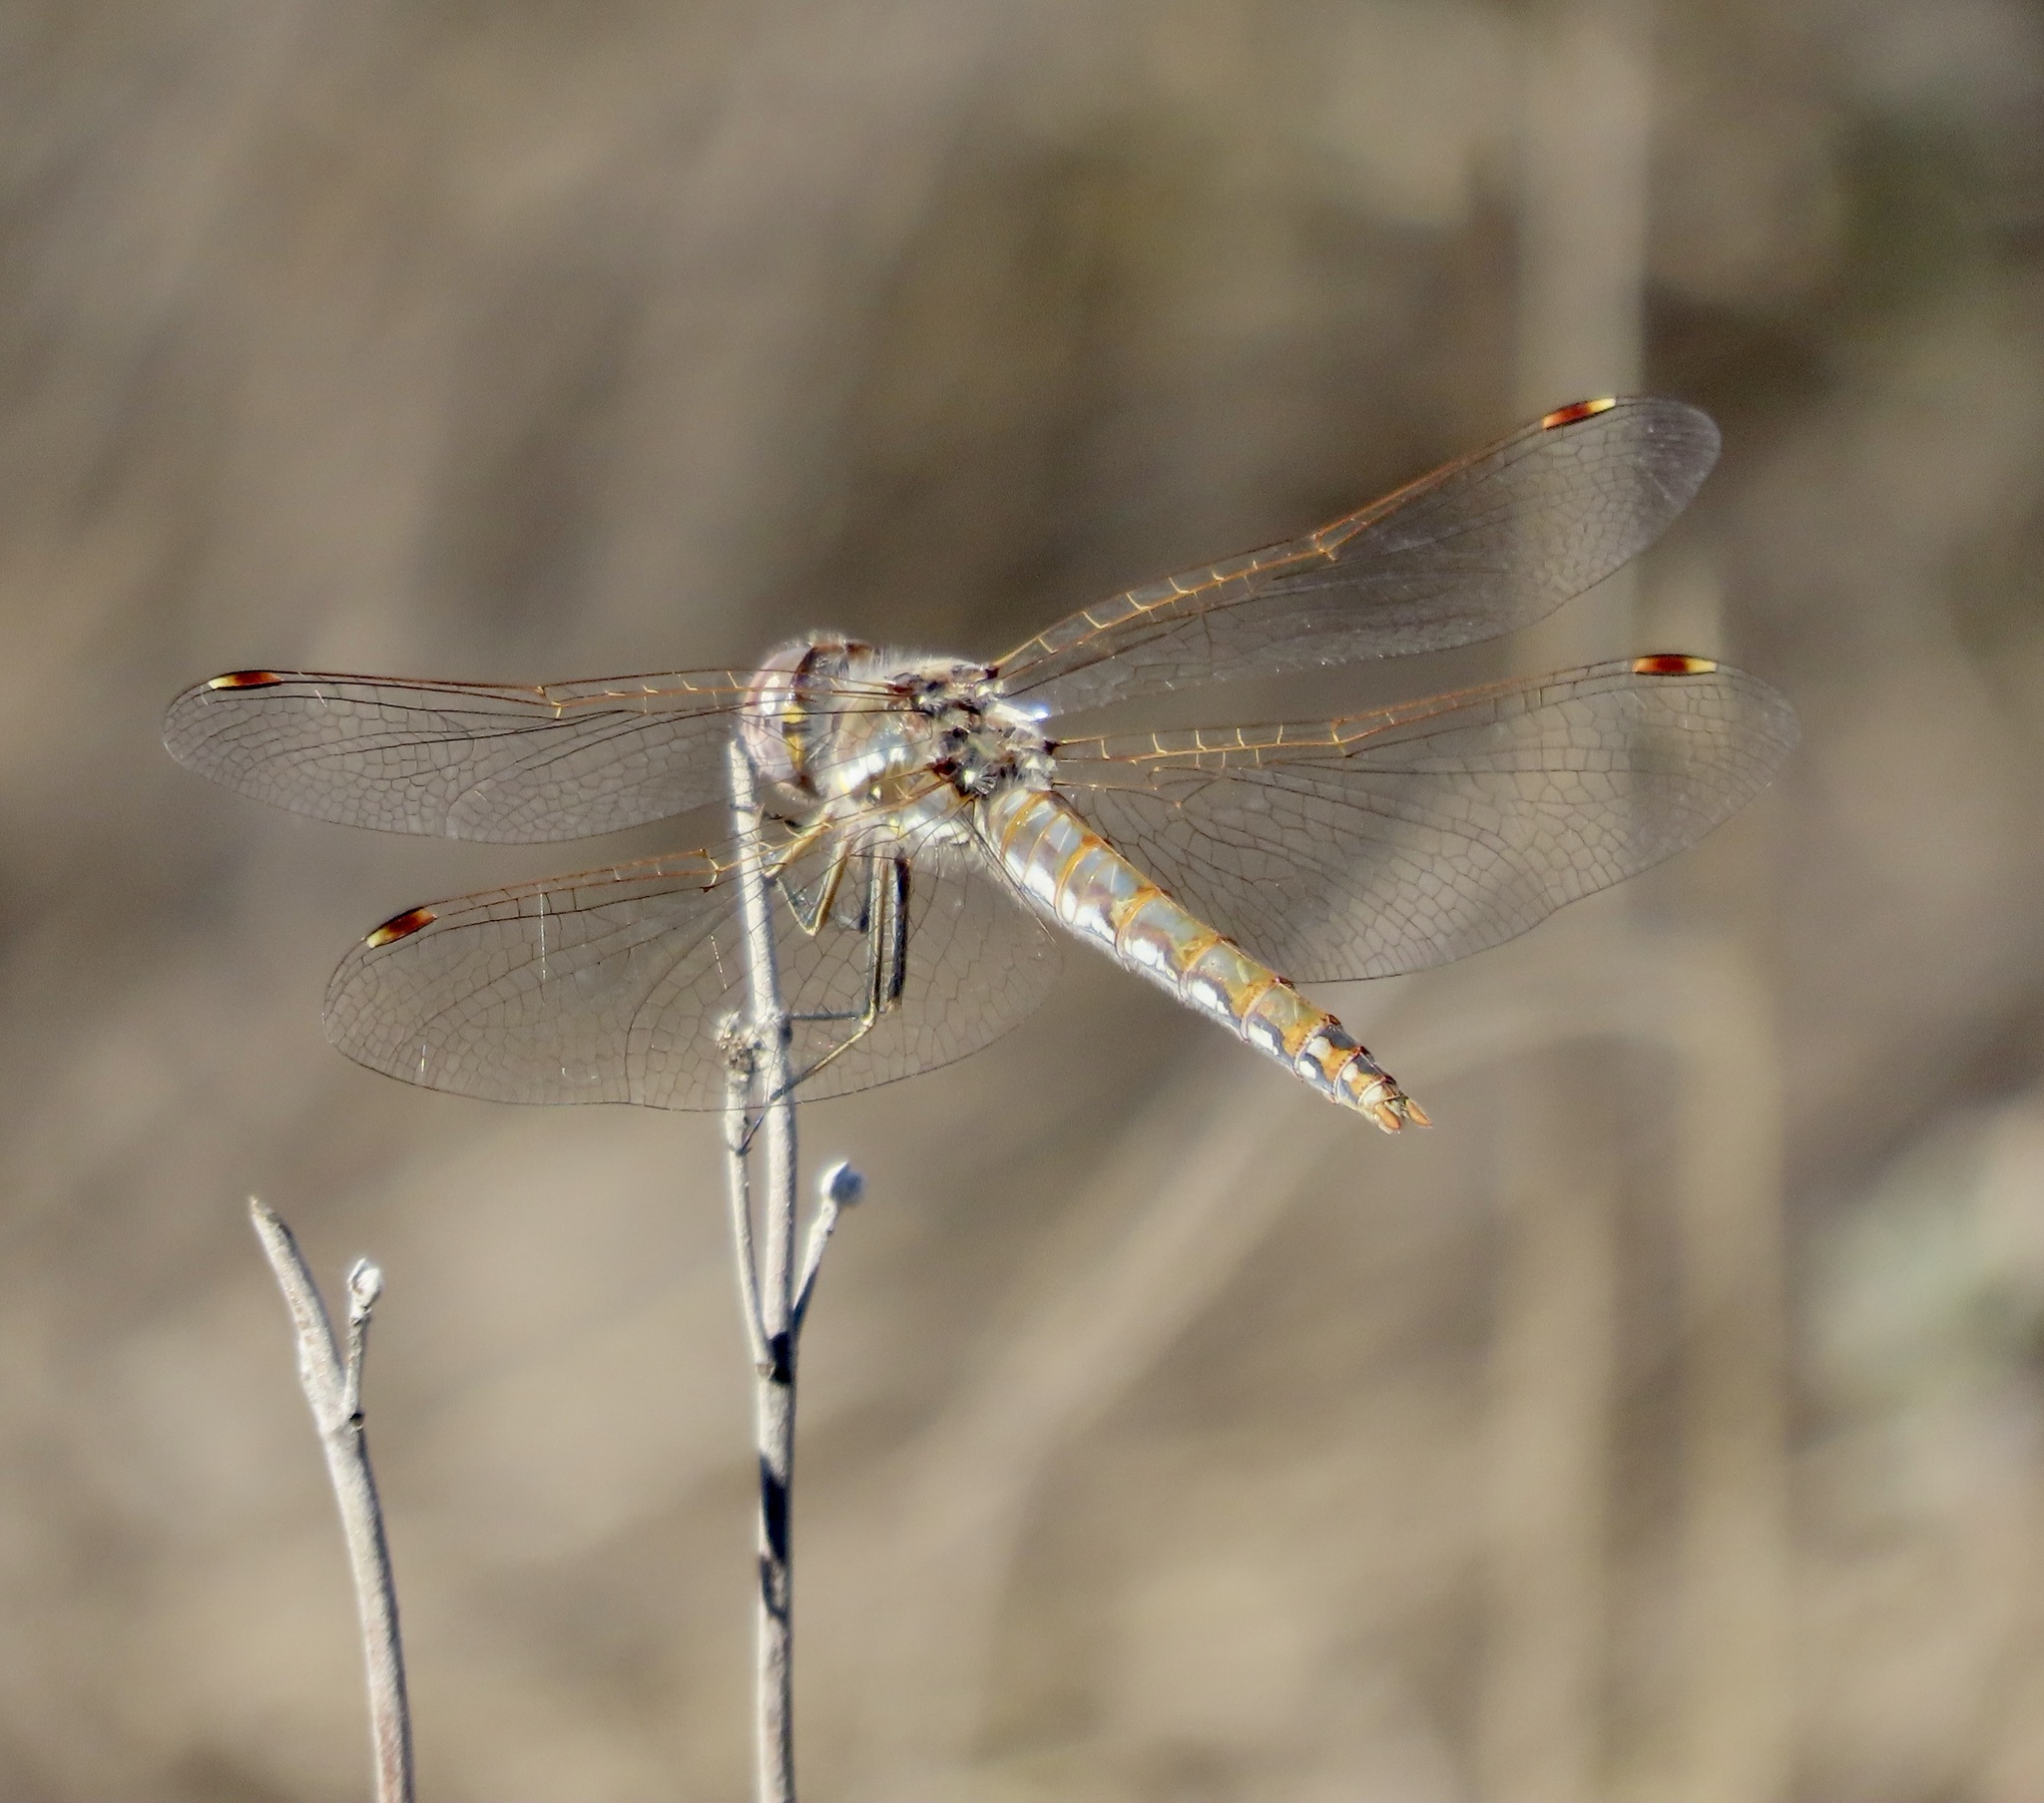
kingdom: Animalia
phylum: Arthropoda
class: Insecta
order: Odonata
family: Libellulidae
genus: Sympetrum
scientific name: Sympetrum corruptum
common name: Variegated meadowhawk
